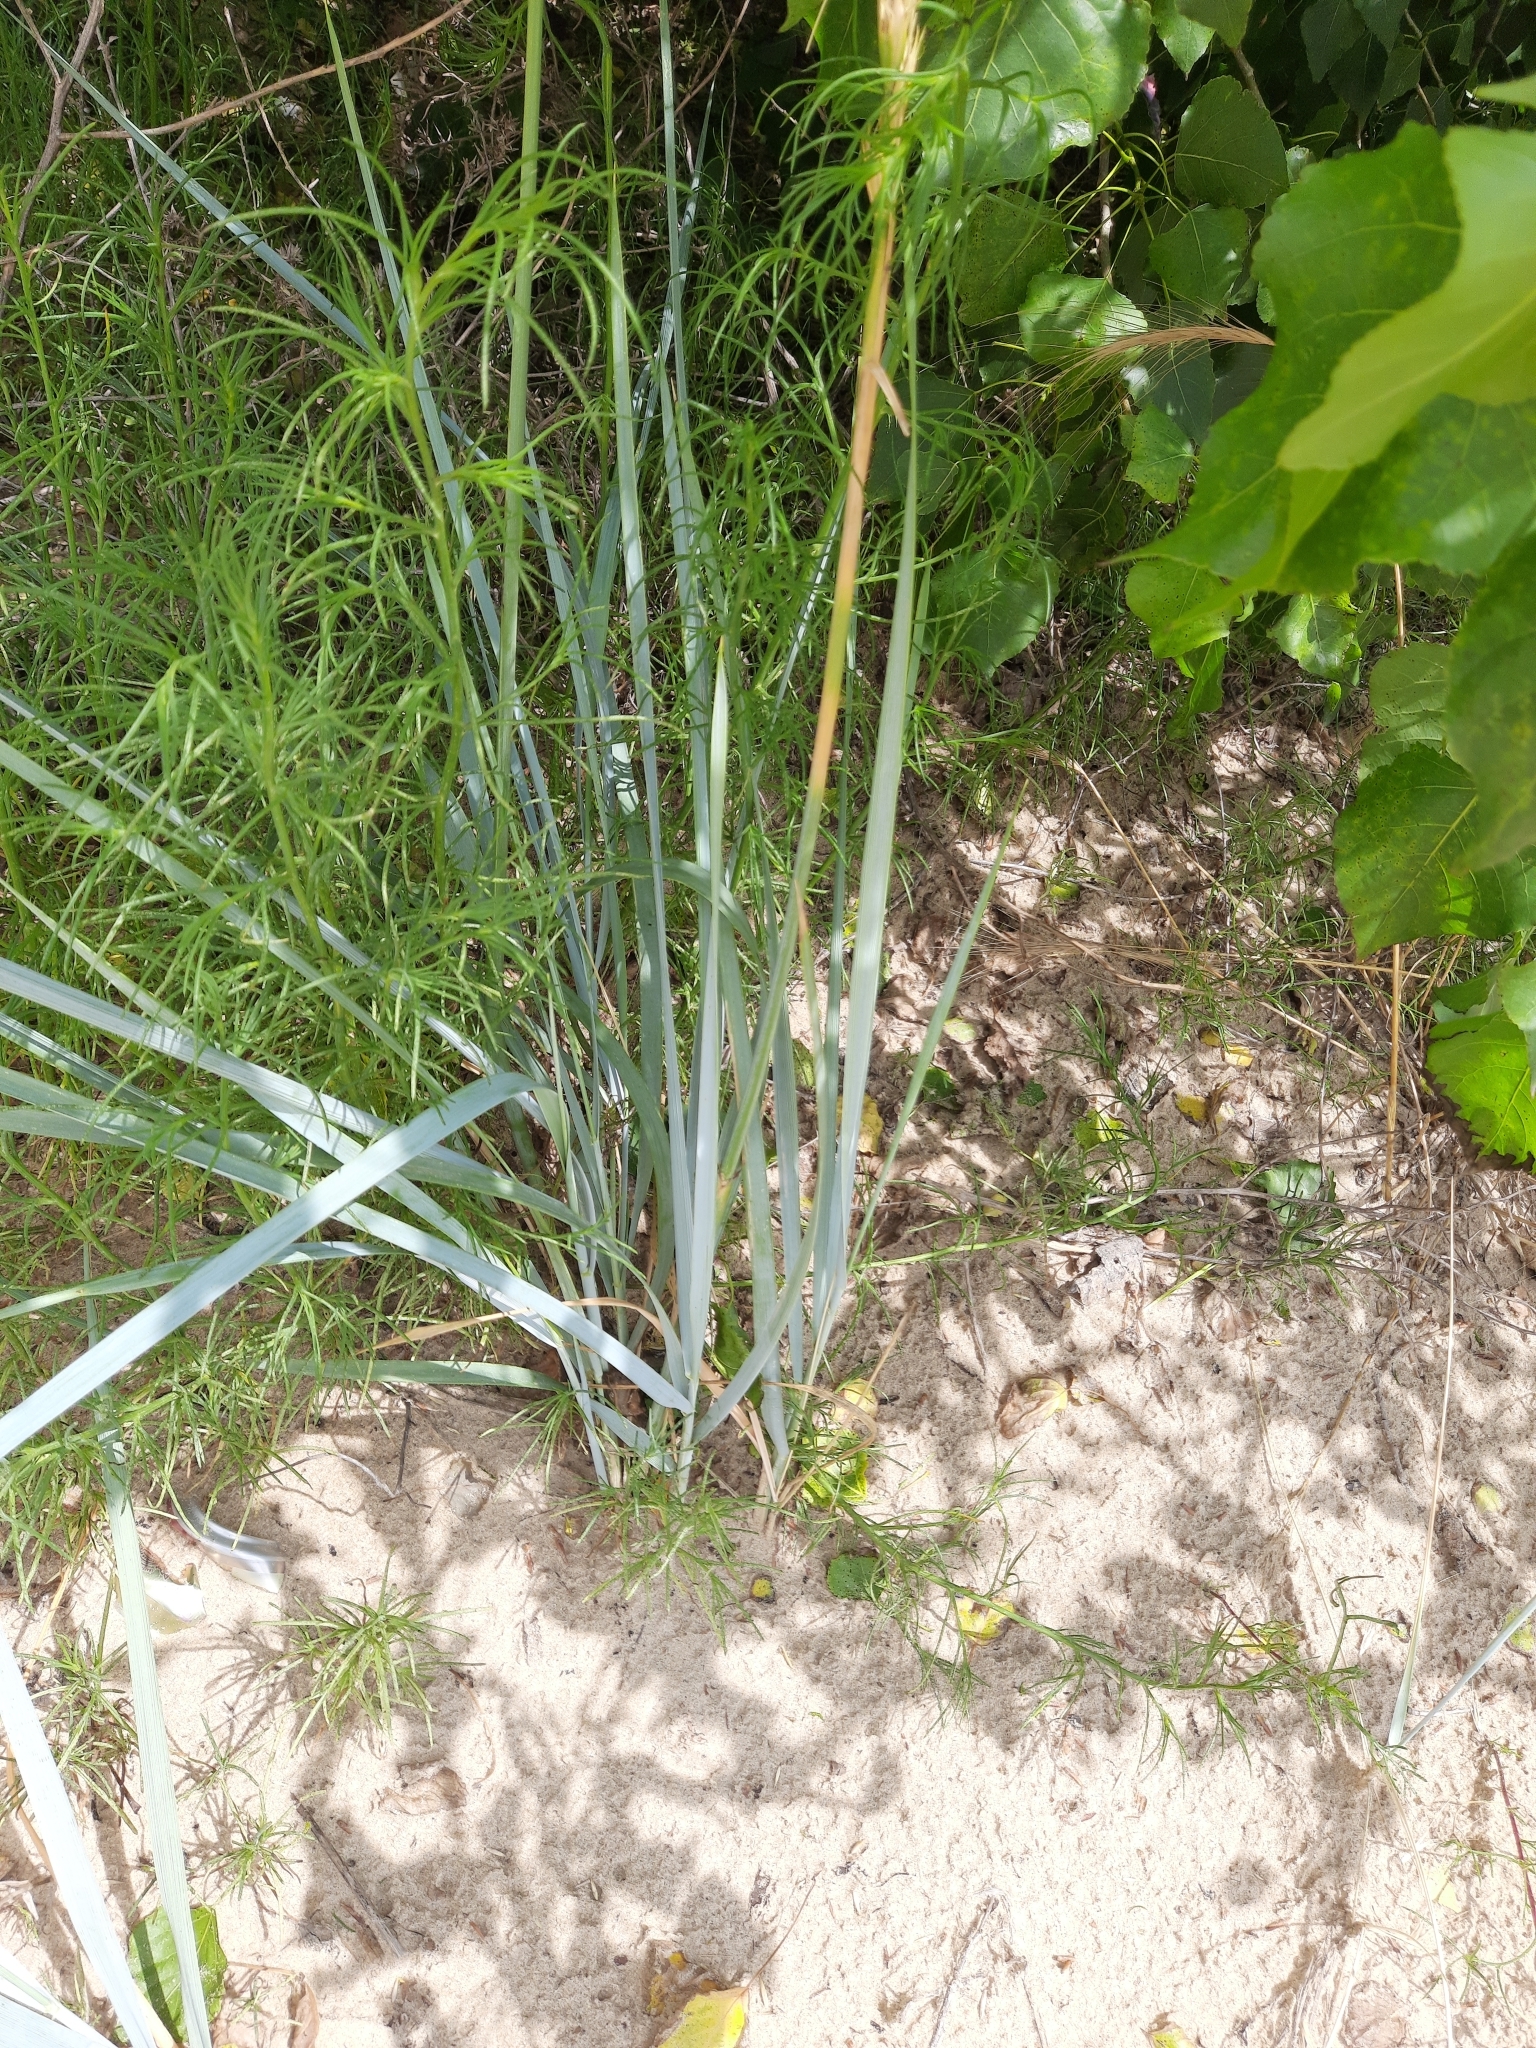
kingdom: Plantae
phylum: Tracheophyta
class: Liliopsida
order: Poales
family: Poaceae
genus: Leymus
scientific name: Leymus racemosus
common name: Mammoth wildrye
